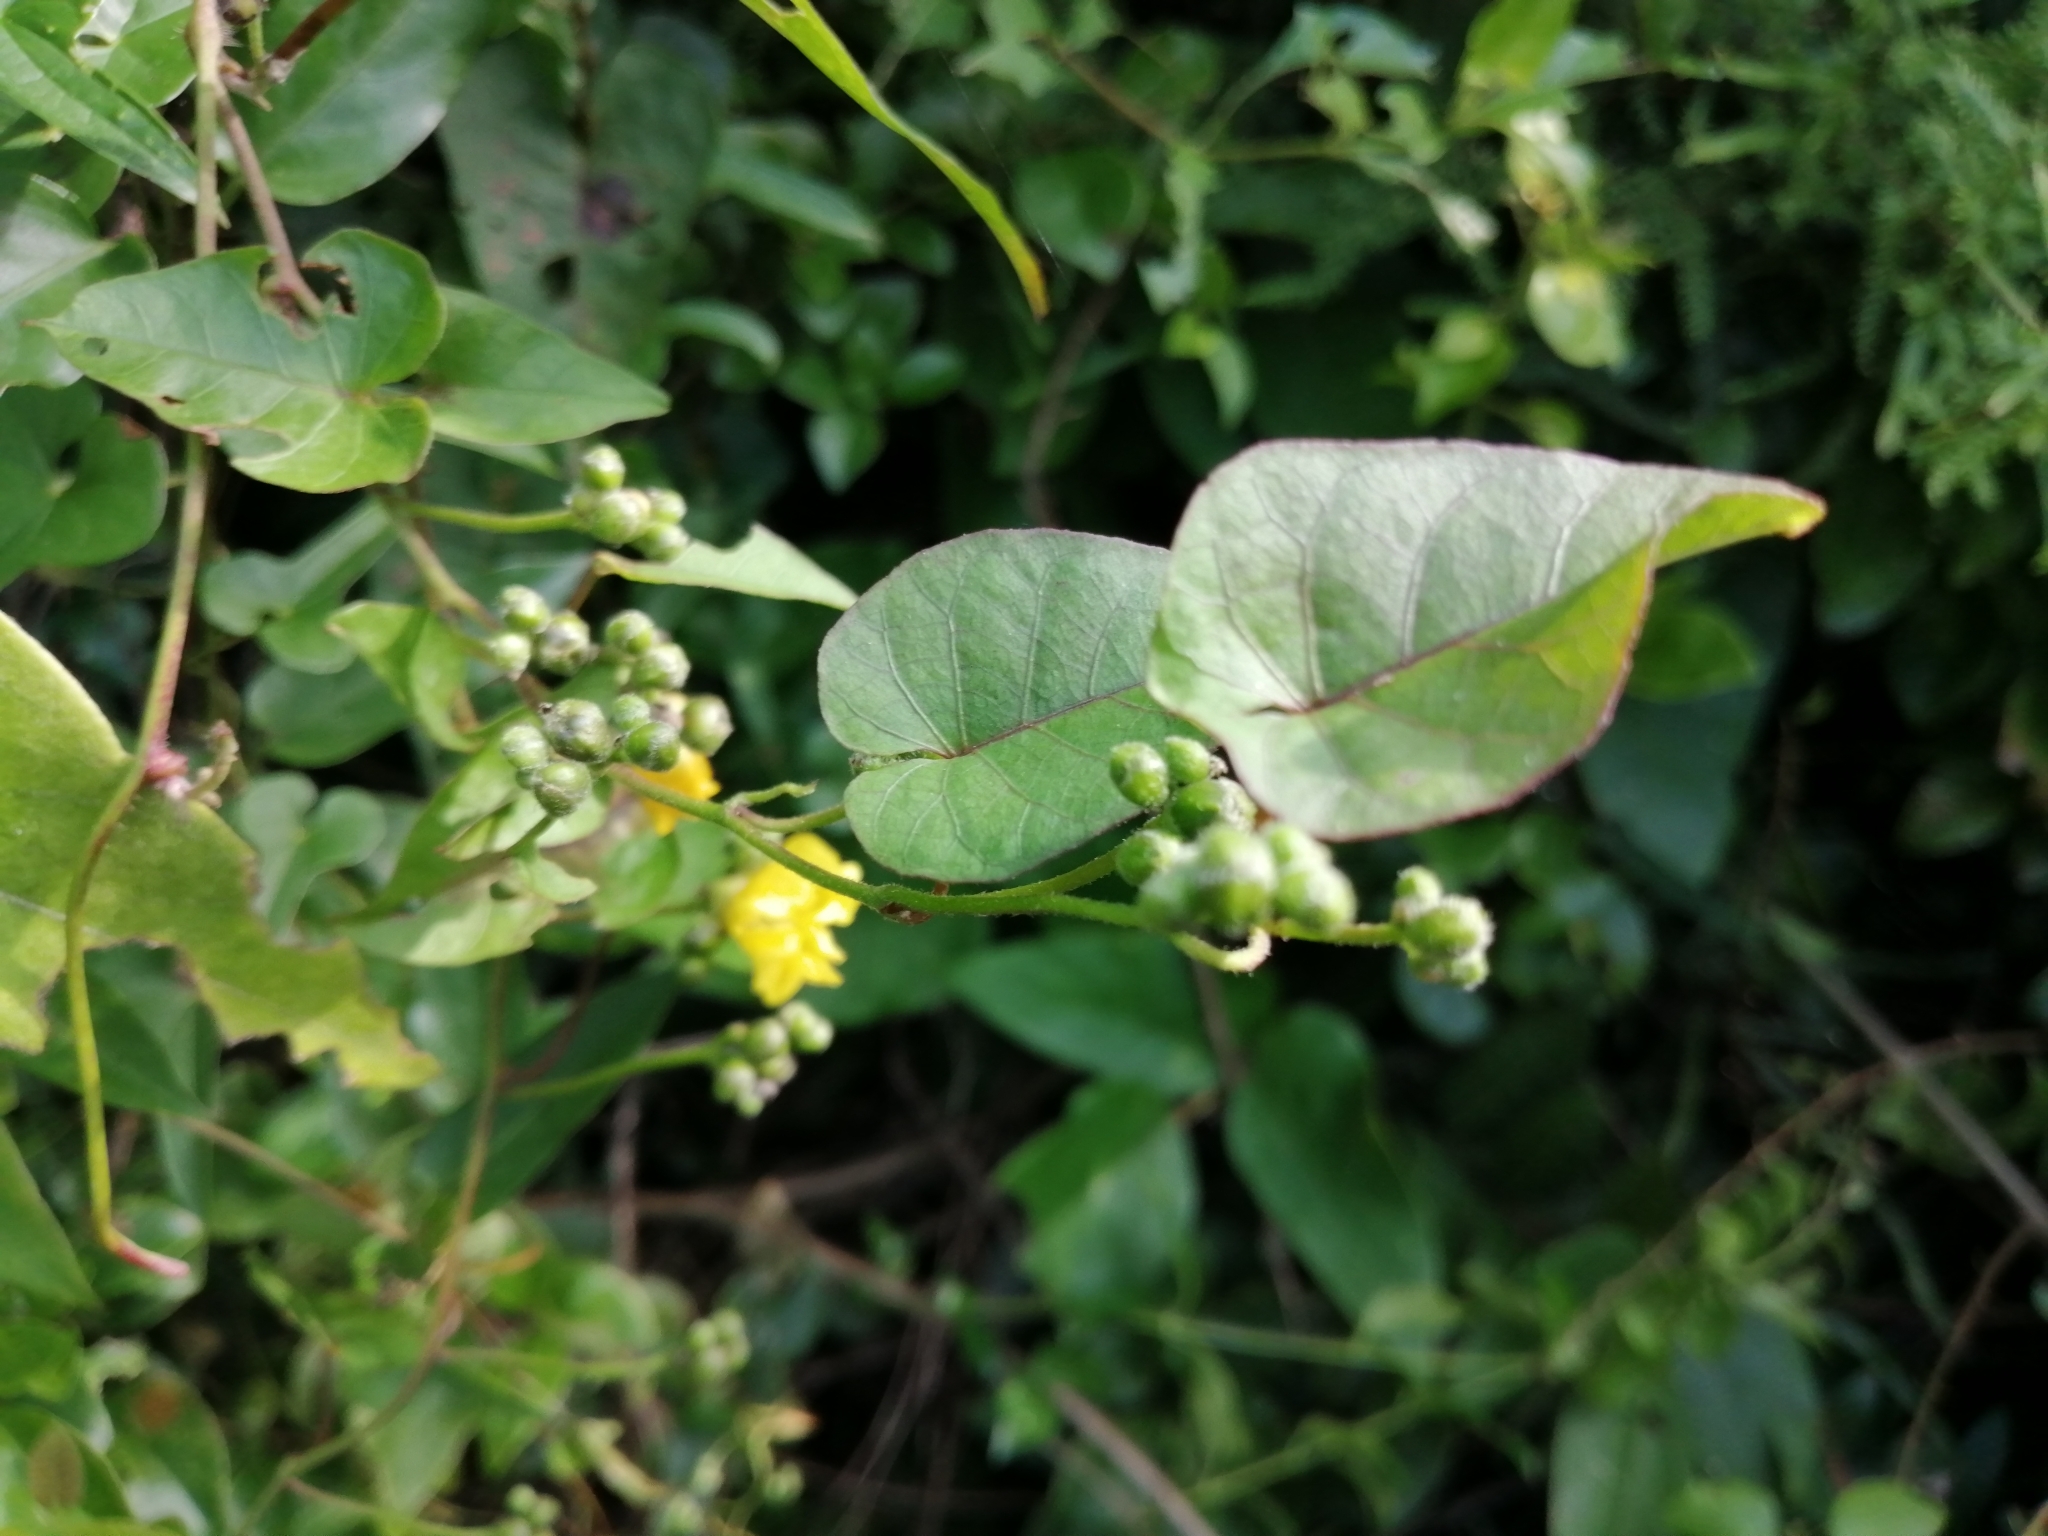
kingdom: Plantae
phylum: Tracheophyta
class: Magnoliopsida
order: Solanales
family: Convolvulaceae
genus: Merremia
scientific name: Merremia gemella
